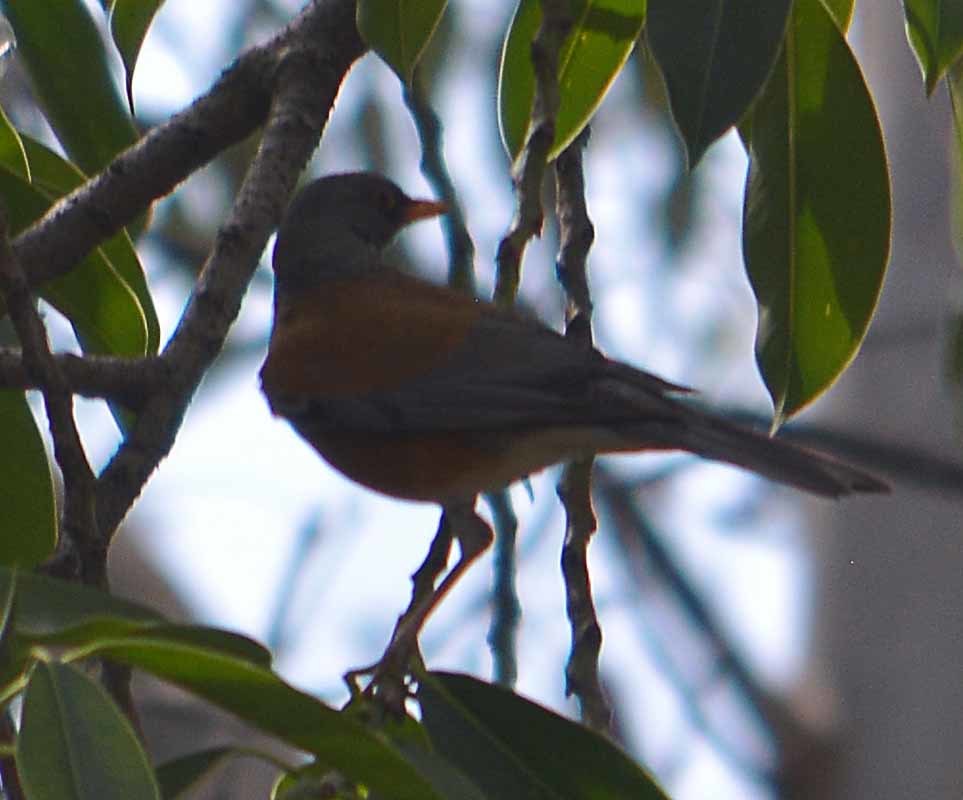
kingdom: Animalia
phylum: Chordata
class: Aves
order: Passeriformes
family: Turdidae
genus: Turdus
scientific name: Turdus rufopalliatus
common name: Rufous-backed robin
